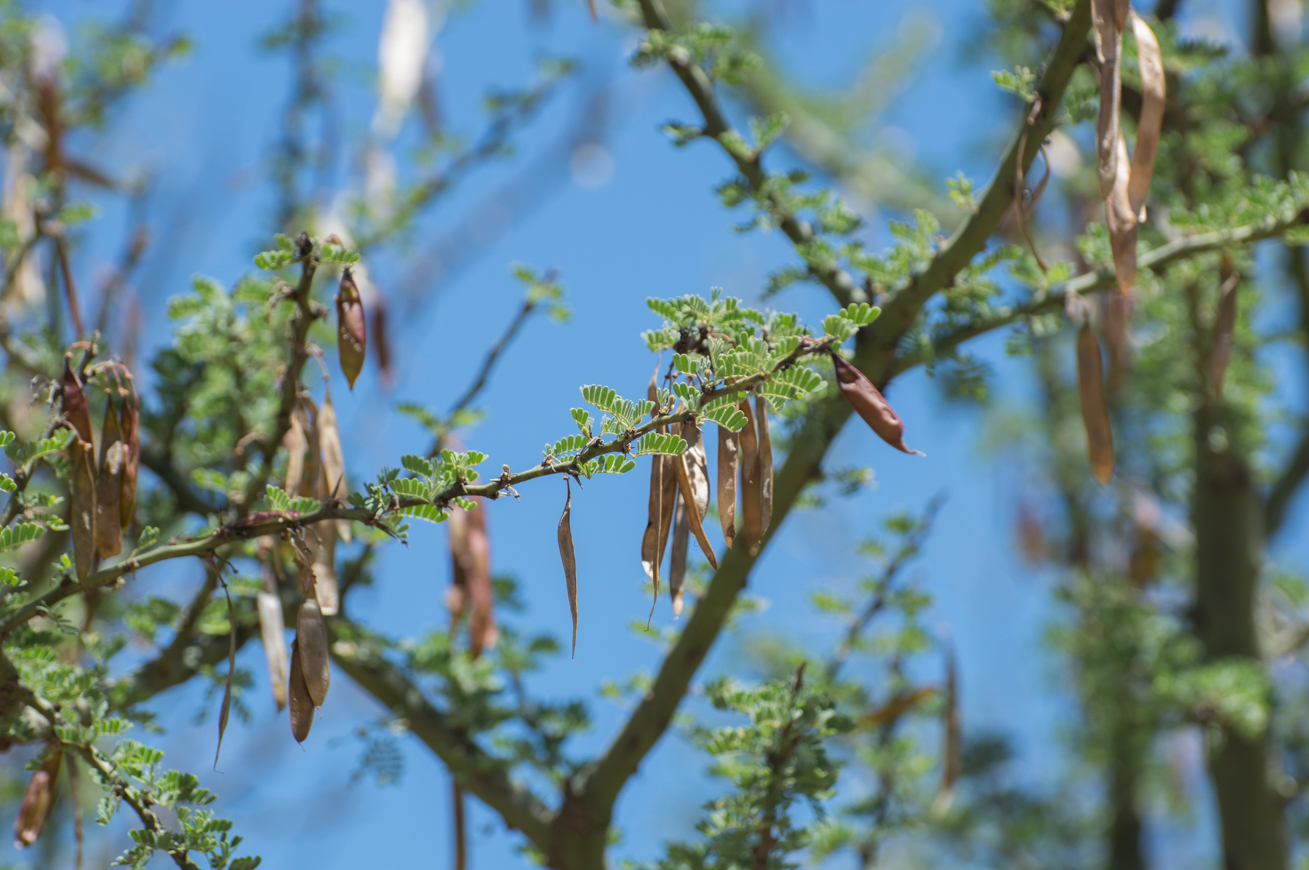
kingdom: Plantae
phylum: Tracheophyta
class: Magnoliopsida
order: Fabales
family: Fabaceae
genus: Parkinsonia
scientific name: Parkinsonia praecox
